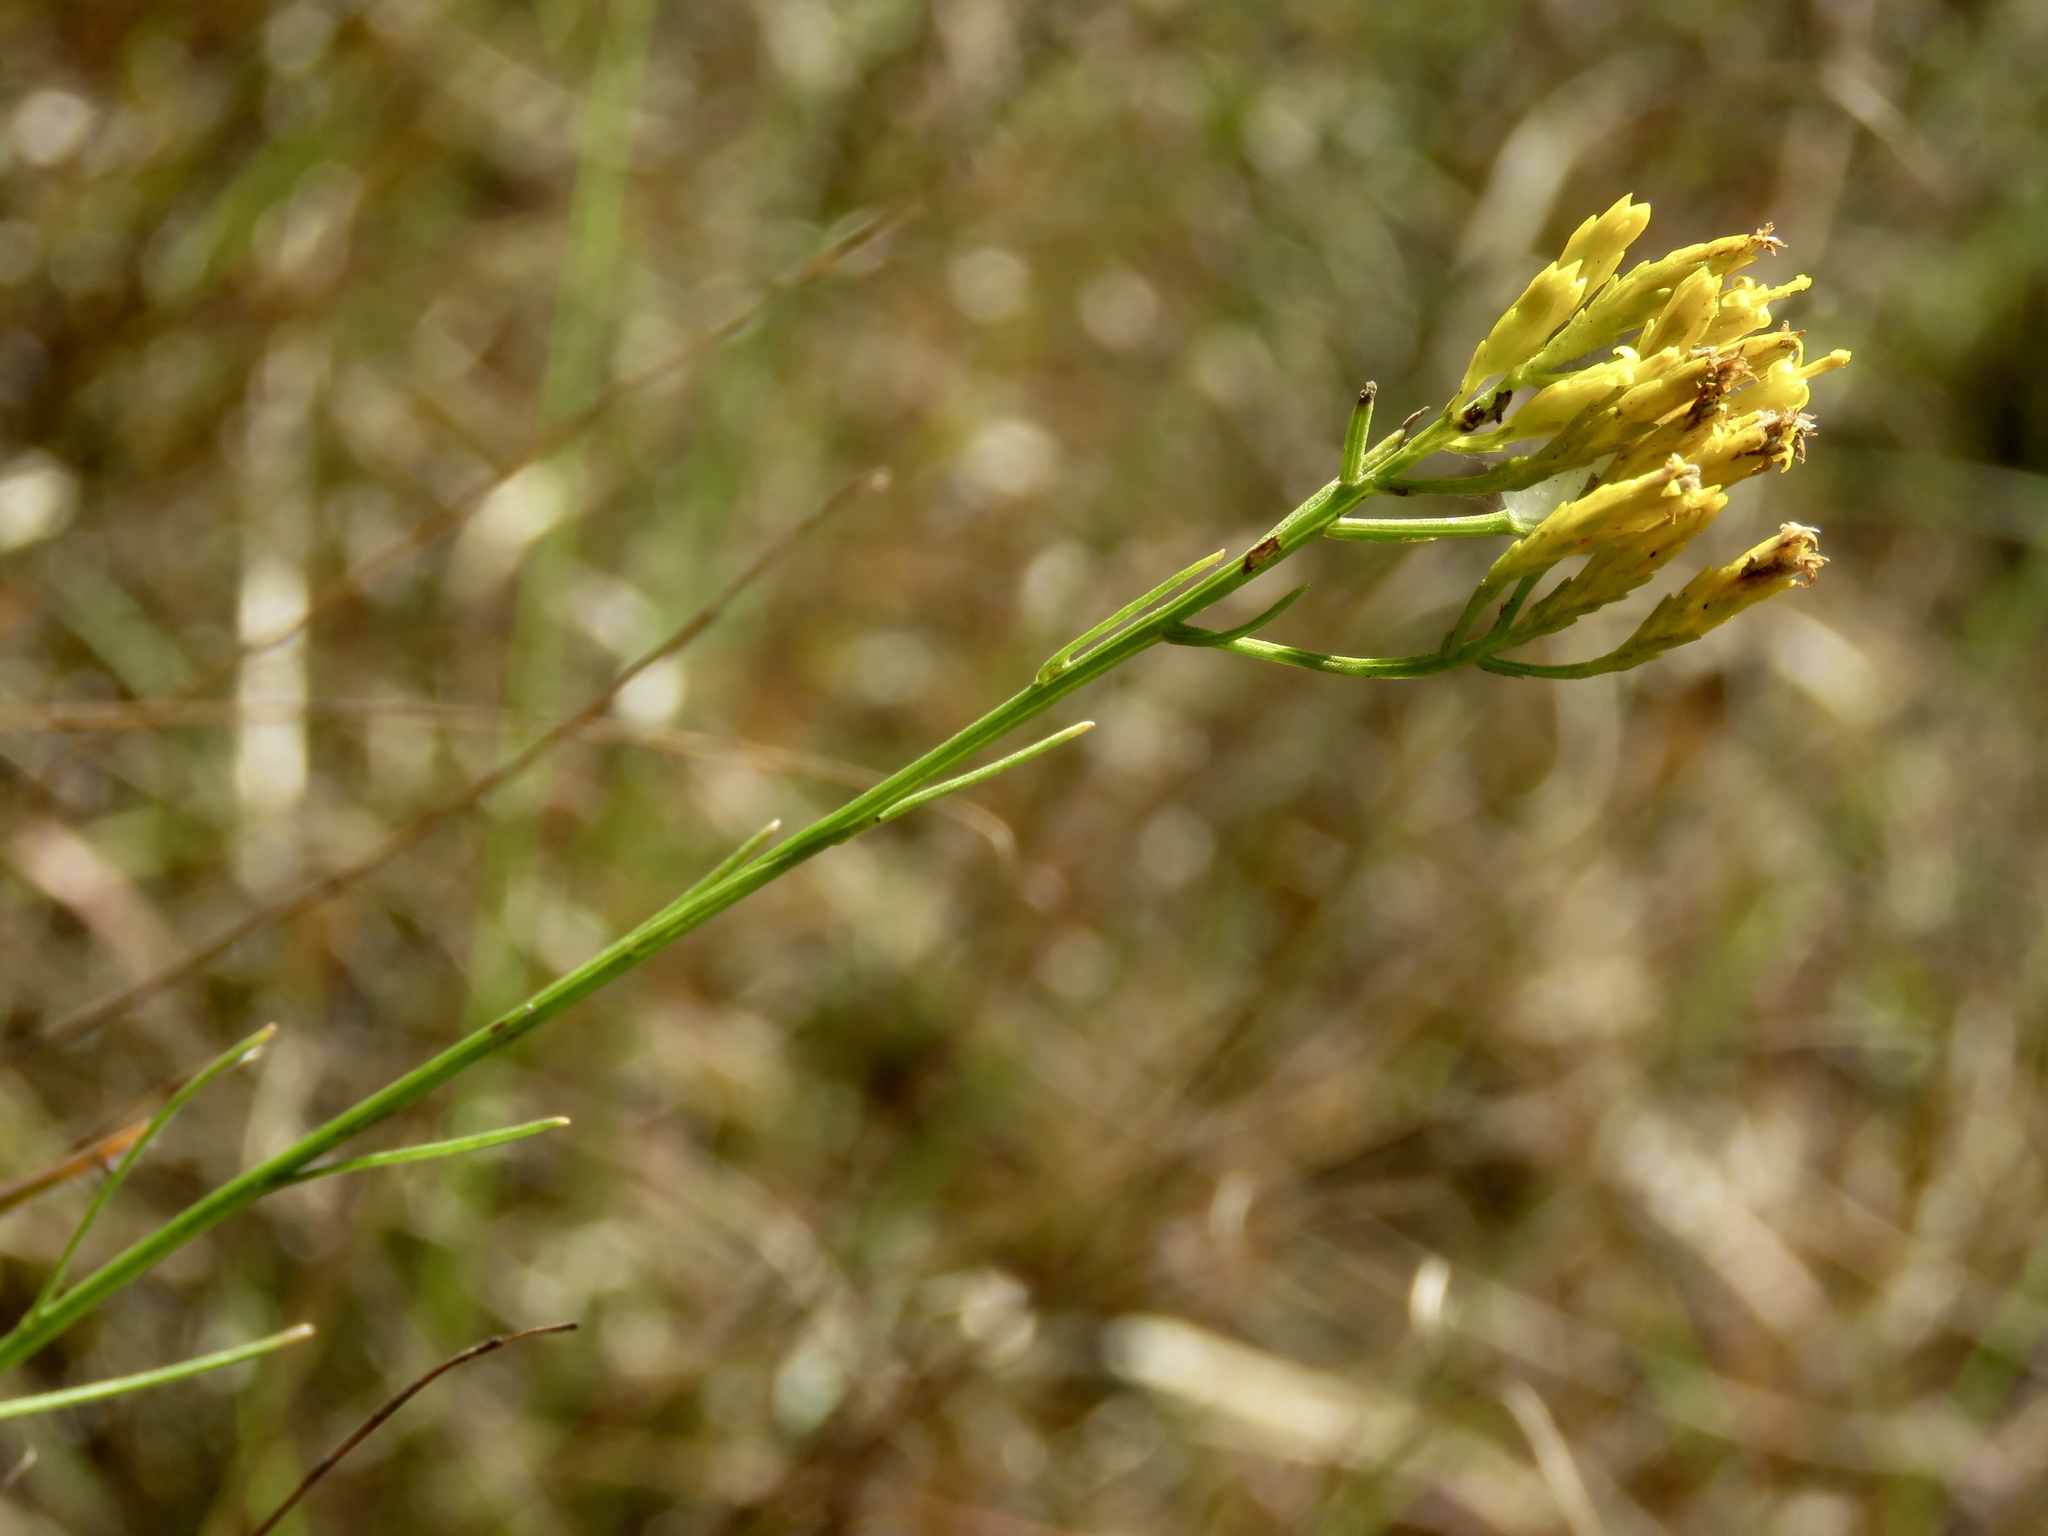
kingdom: Plantae
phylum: Tracheophyta
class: Magnoliopsida
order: Asterales
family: Asteraceae
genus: Bigelowia
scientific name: Bigelowia nuttallii
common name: Nuttall's rayless-goldenrod
